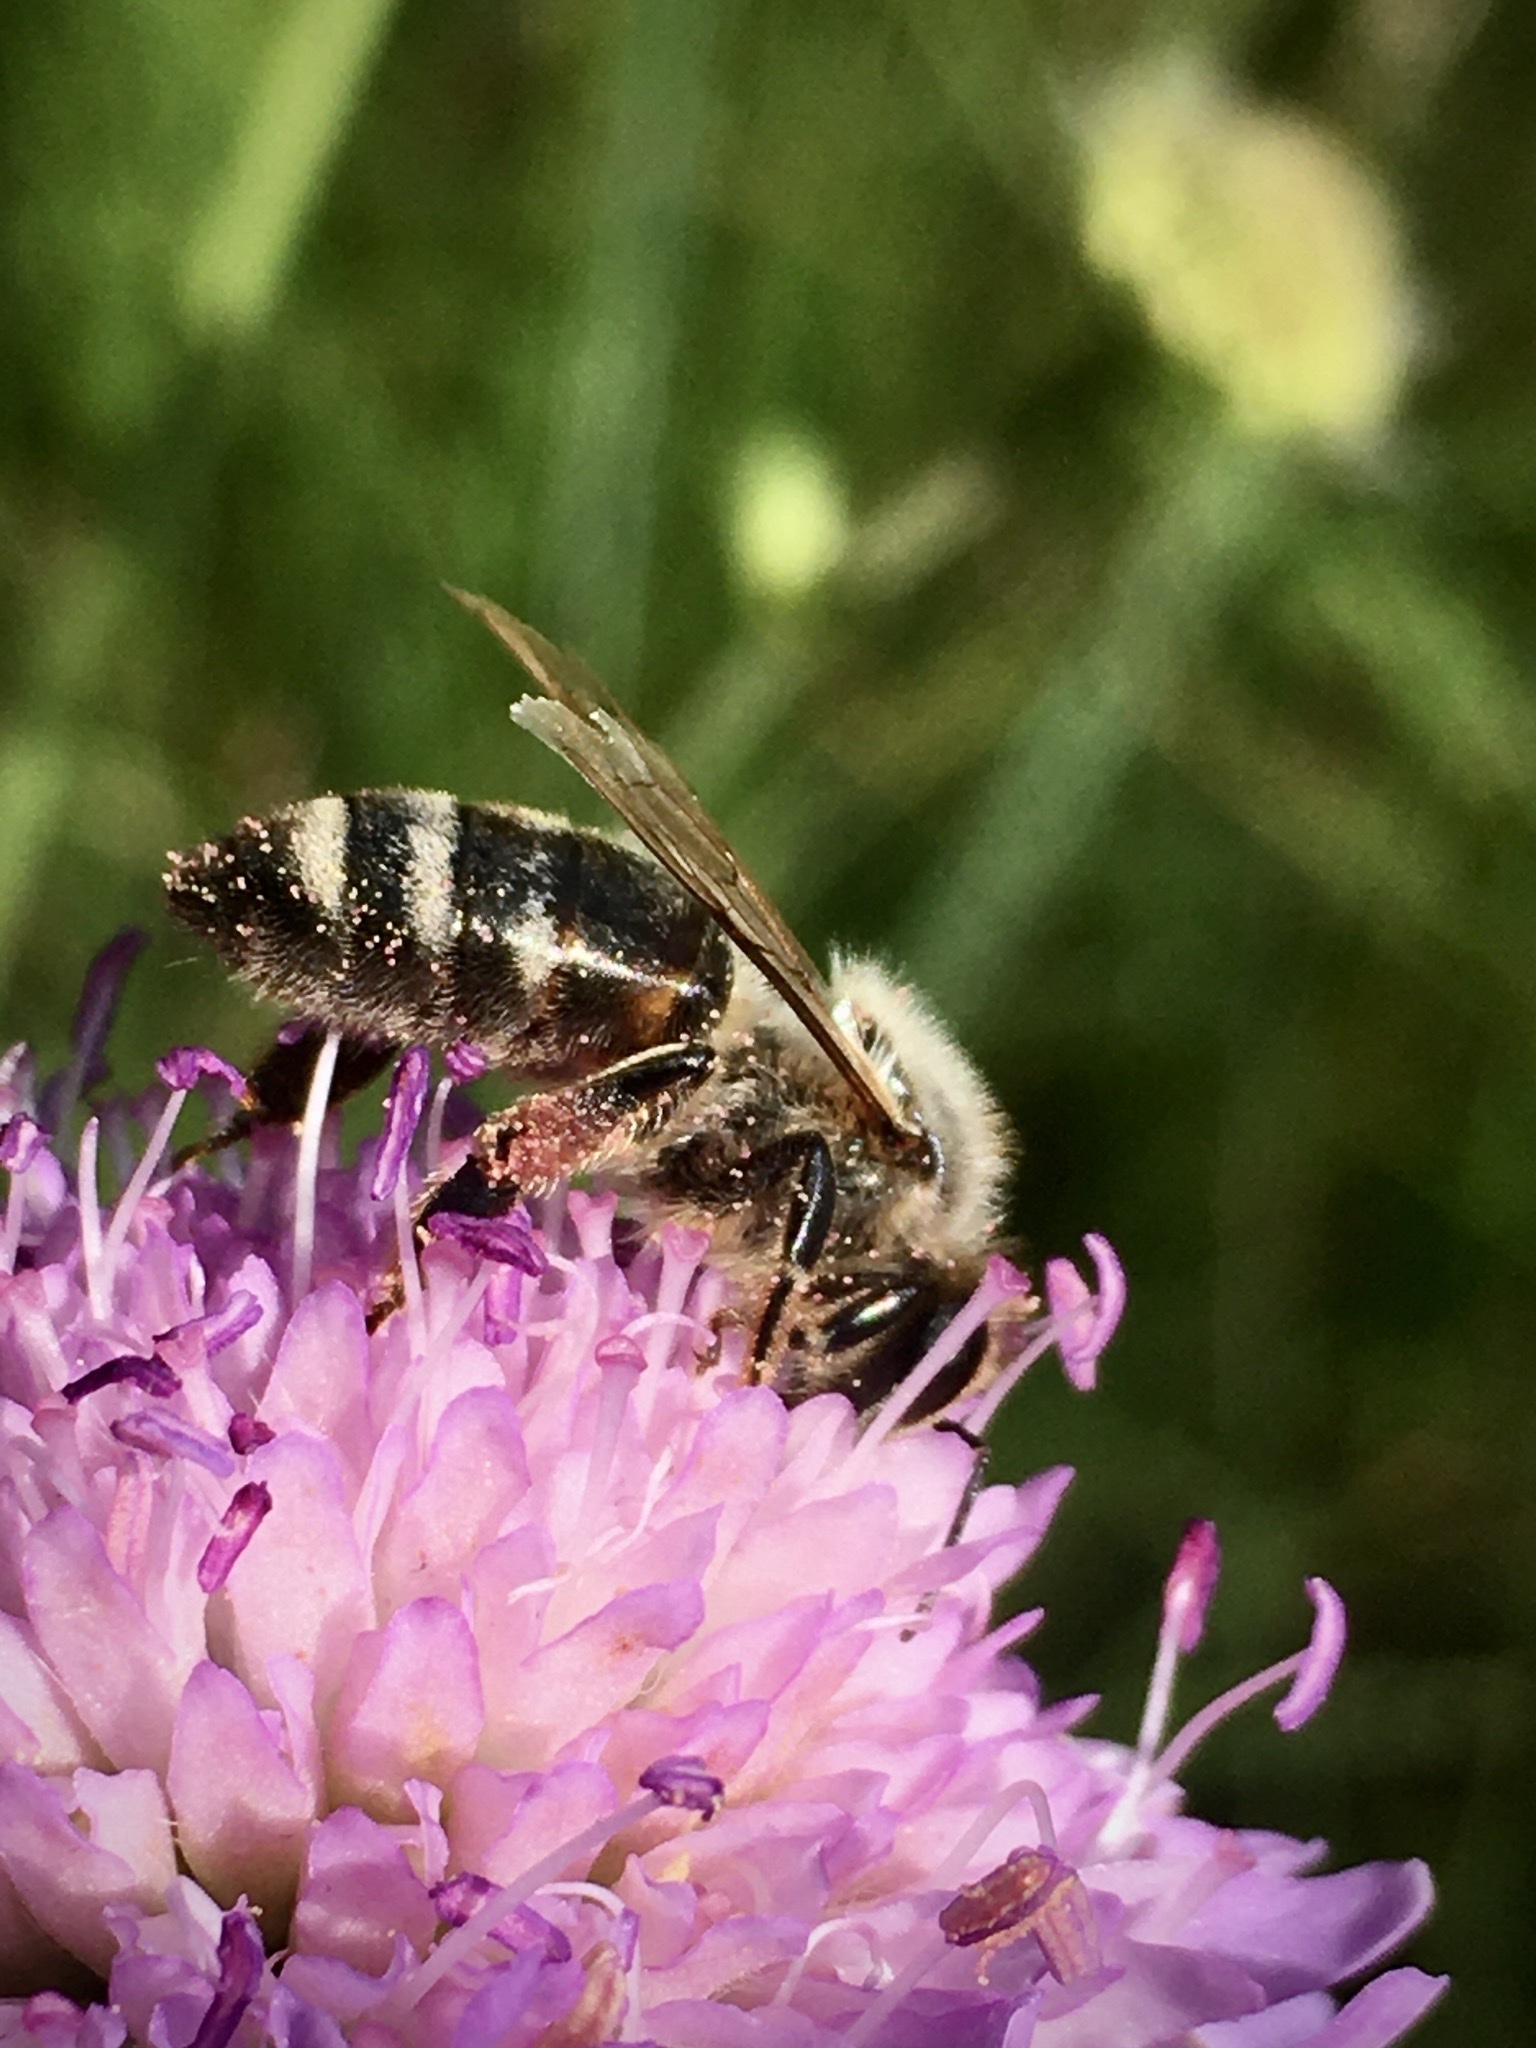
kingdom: Animalia
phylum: Arthropoda
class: Insecta
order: Hymenoptera
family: Apidae
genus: Apis
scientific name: Apis mellifera
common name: Honey bee
